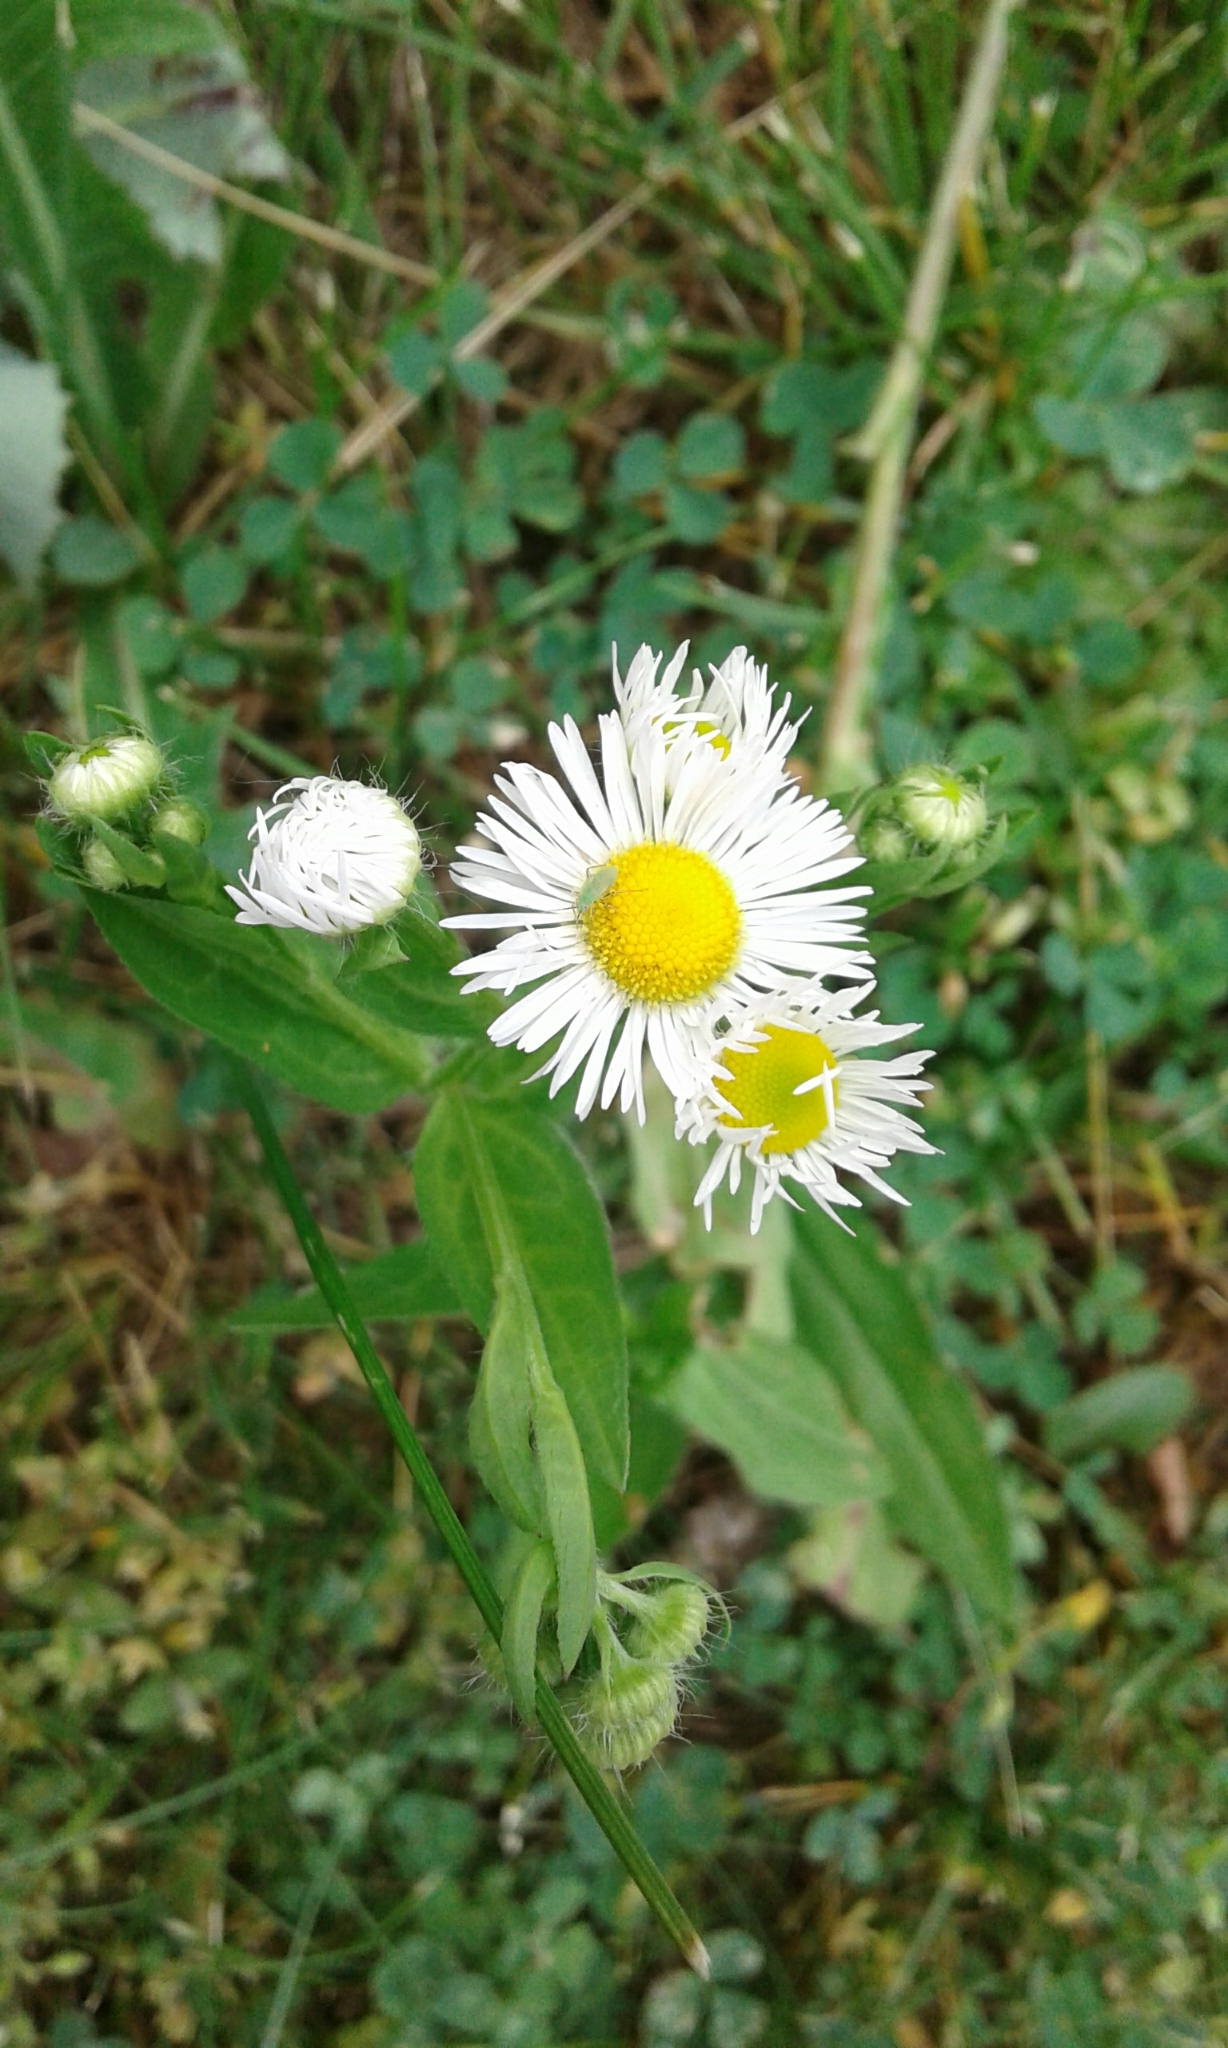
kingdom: Plantae
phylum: Tracheophyta
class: Magnoliopsida
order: Asterales
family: Asteraceae
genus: Erigeron
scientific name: Erigeron philadelphicus
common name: Robin's-plantain
